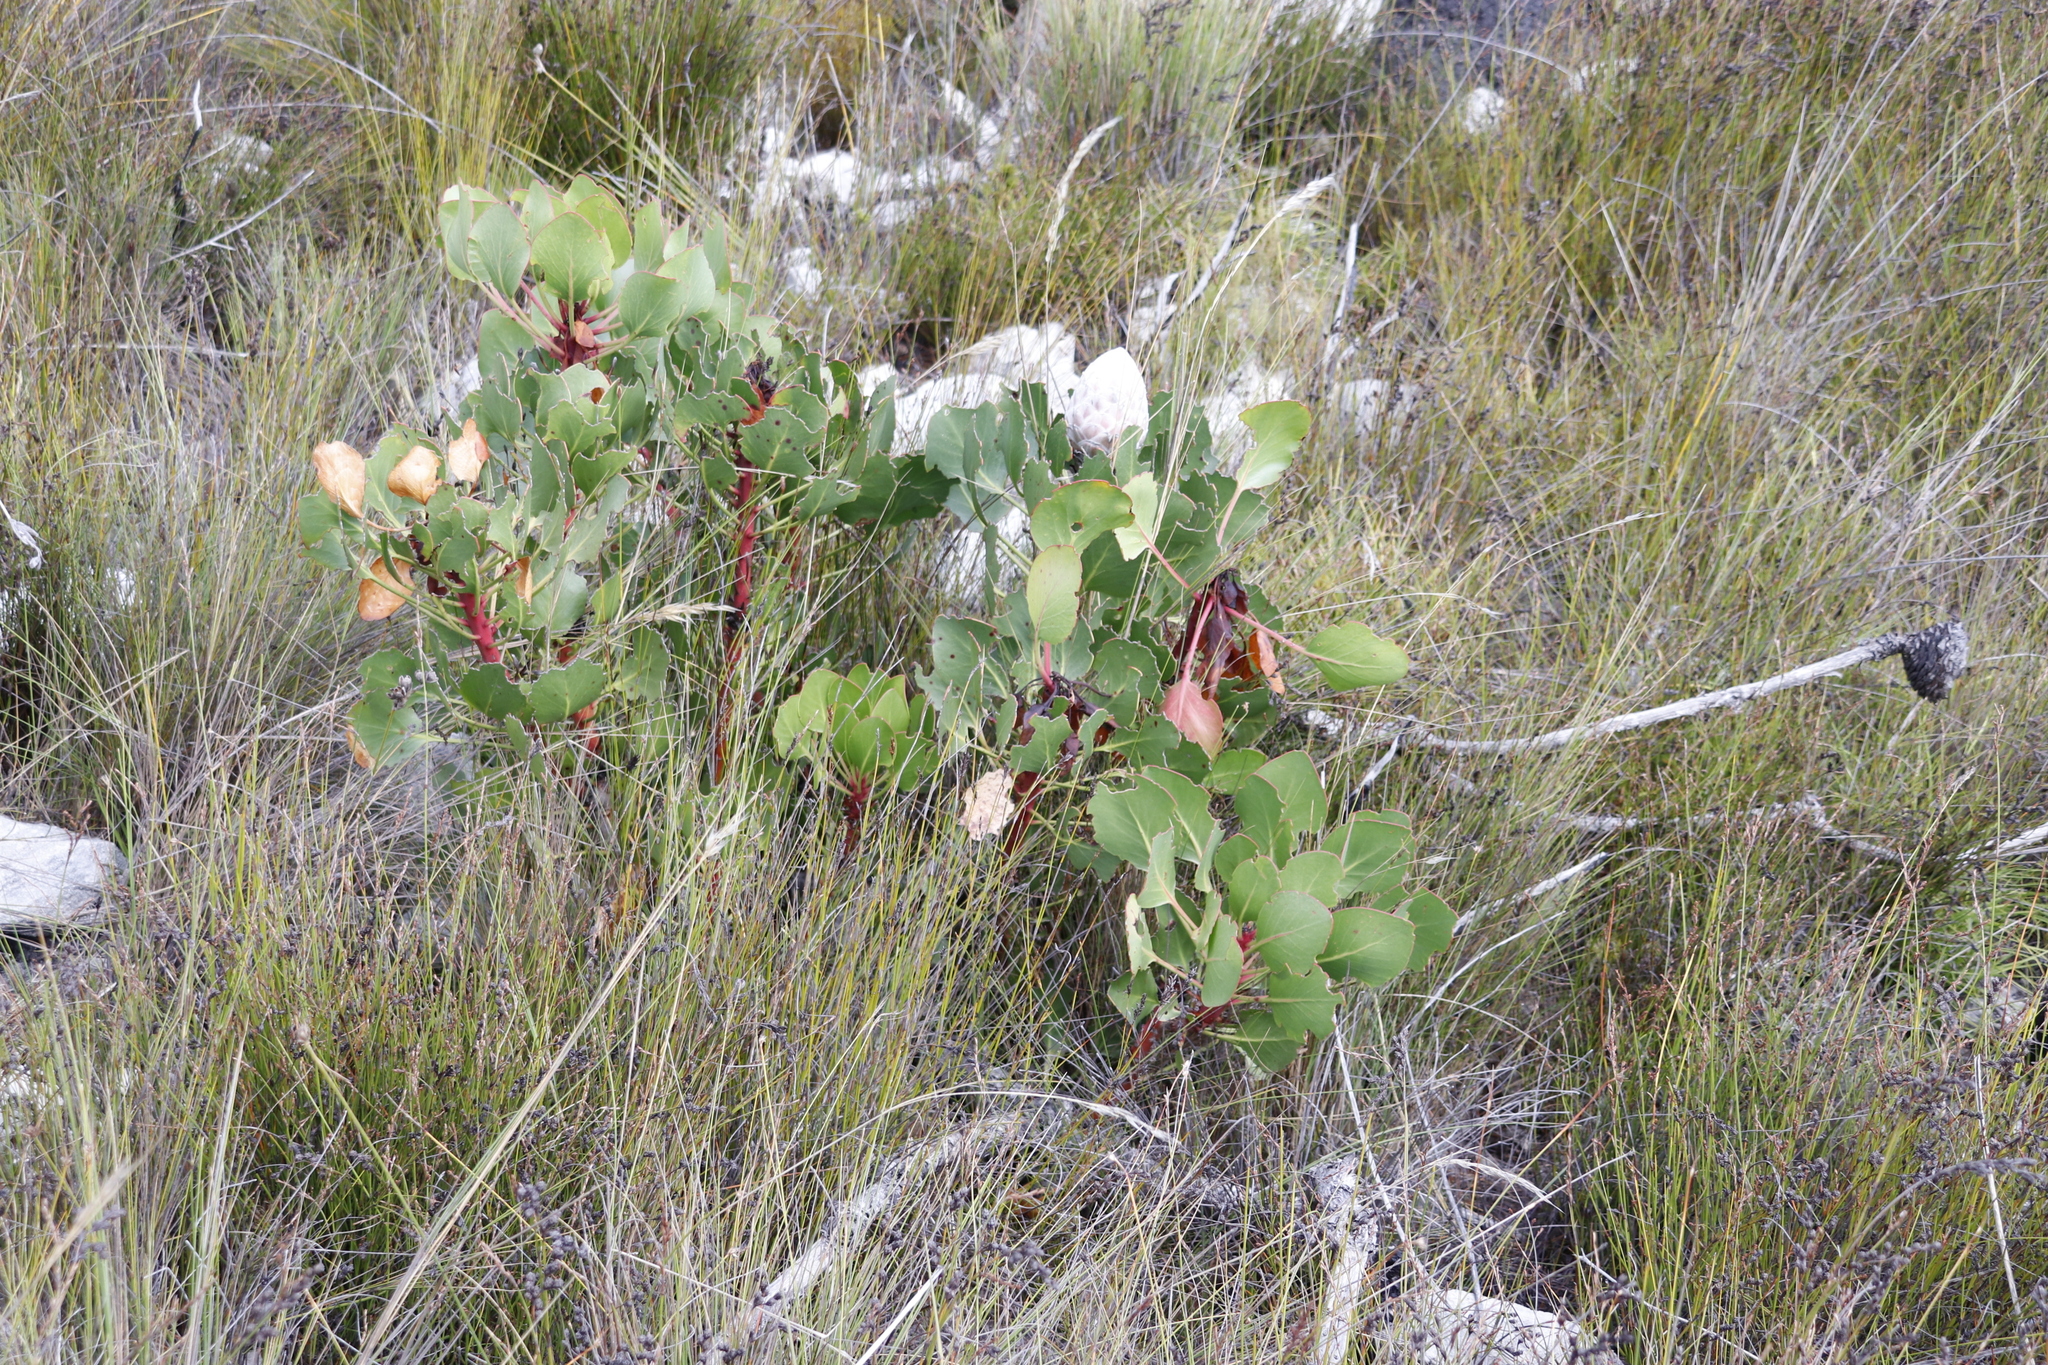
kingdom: Plantae
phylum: Tracheophyta
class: Magnoliopsida
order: Proteales
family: Proteaceae
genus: Protea
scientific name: Protea cynaroides
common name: King protea
